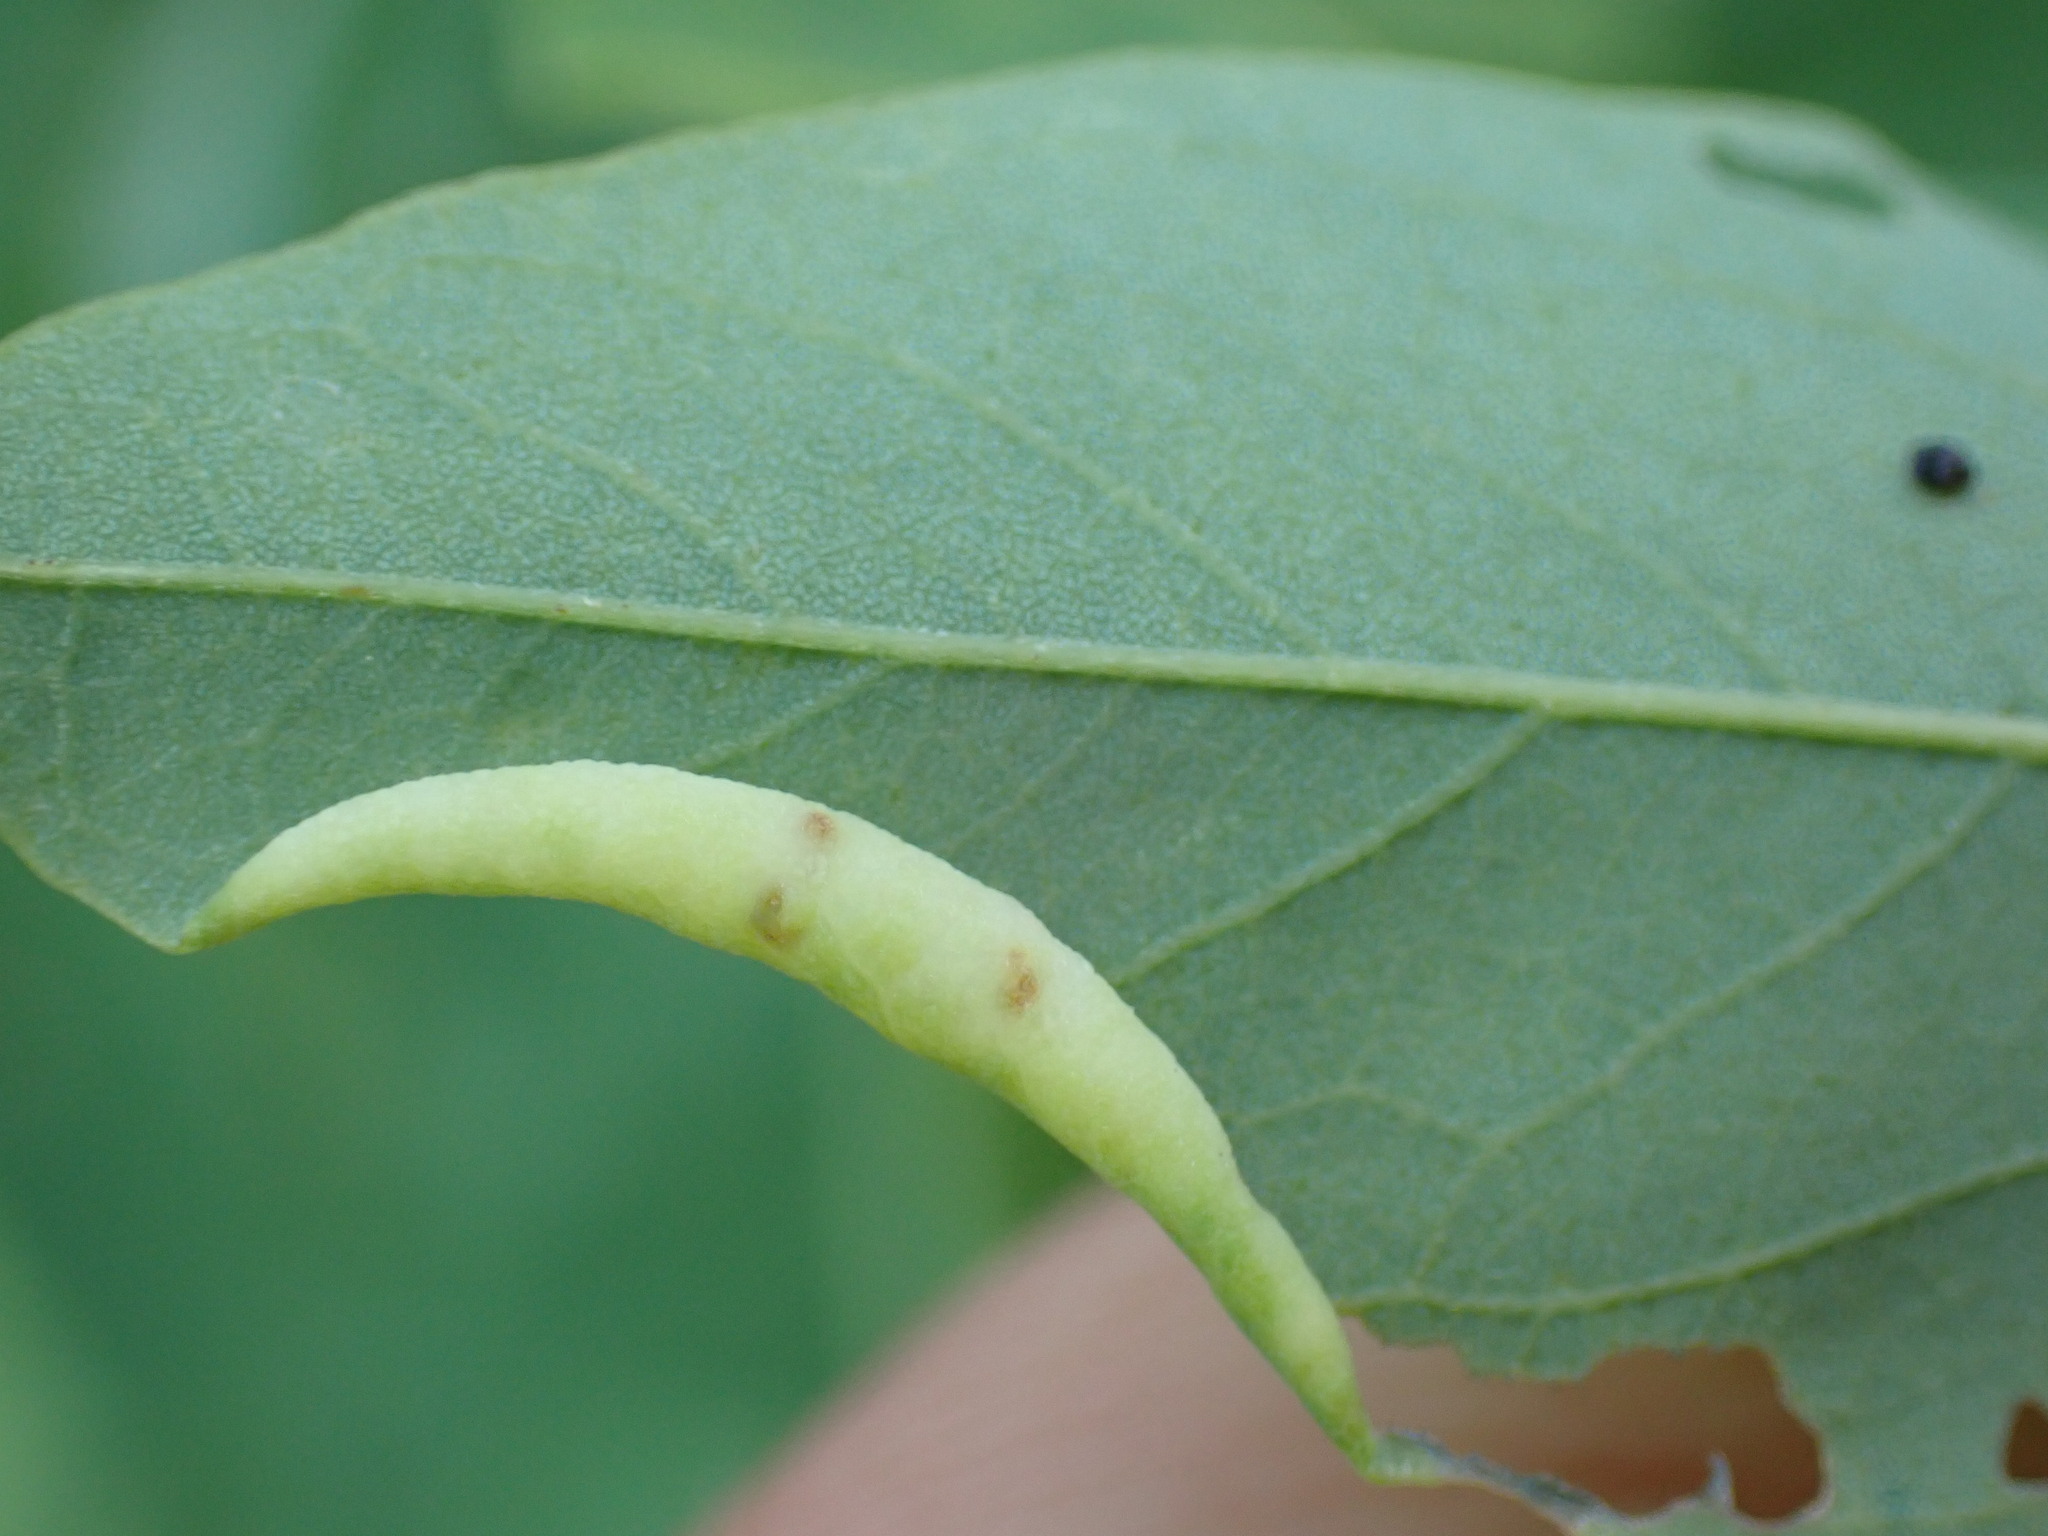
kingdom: Animalia
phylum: Arthropoda
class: Insecta
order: Diptera
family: Cecidomyiidae
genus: Obolodiplosis
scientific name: Obolodiplosis robiniae
